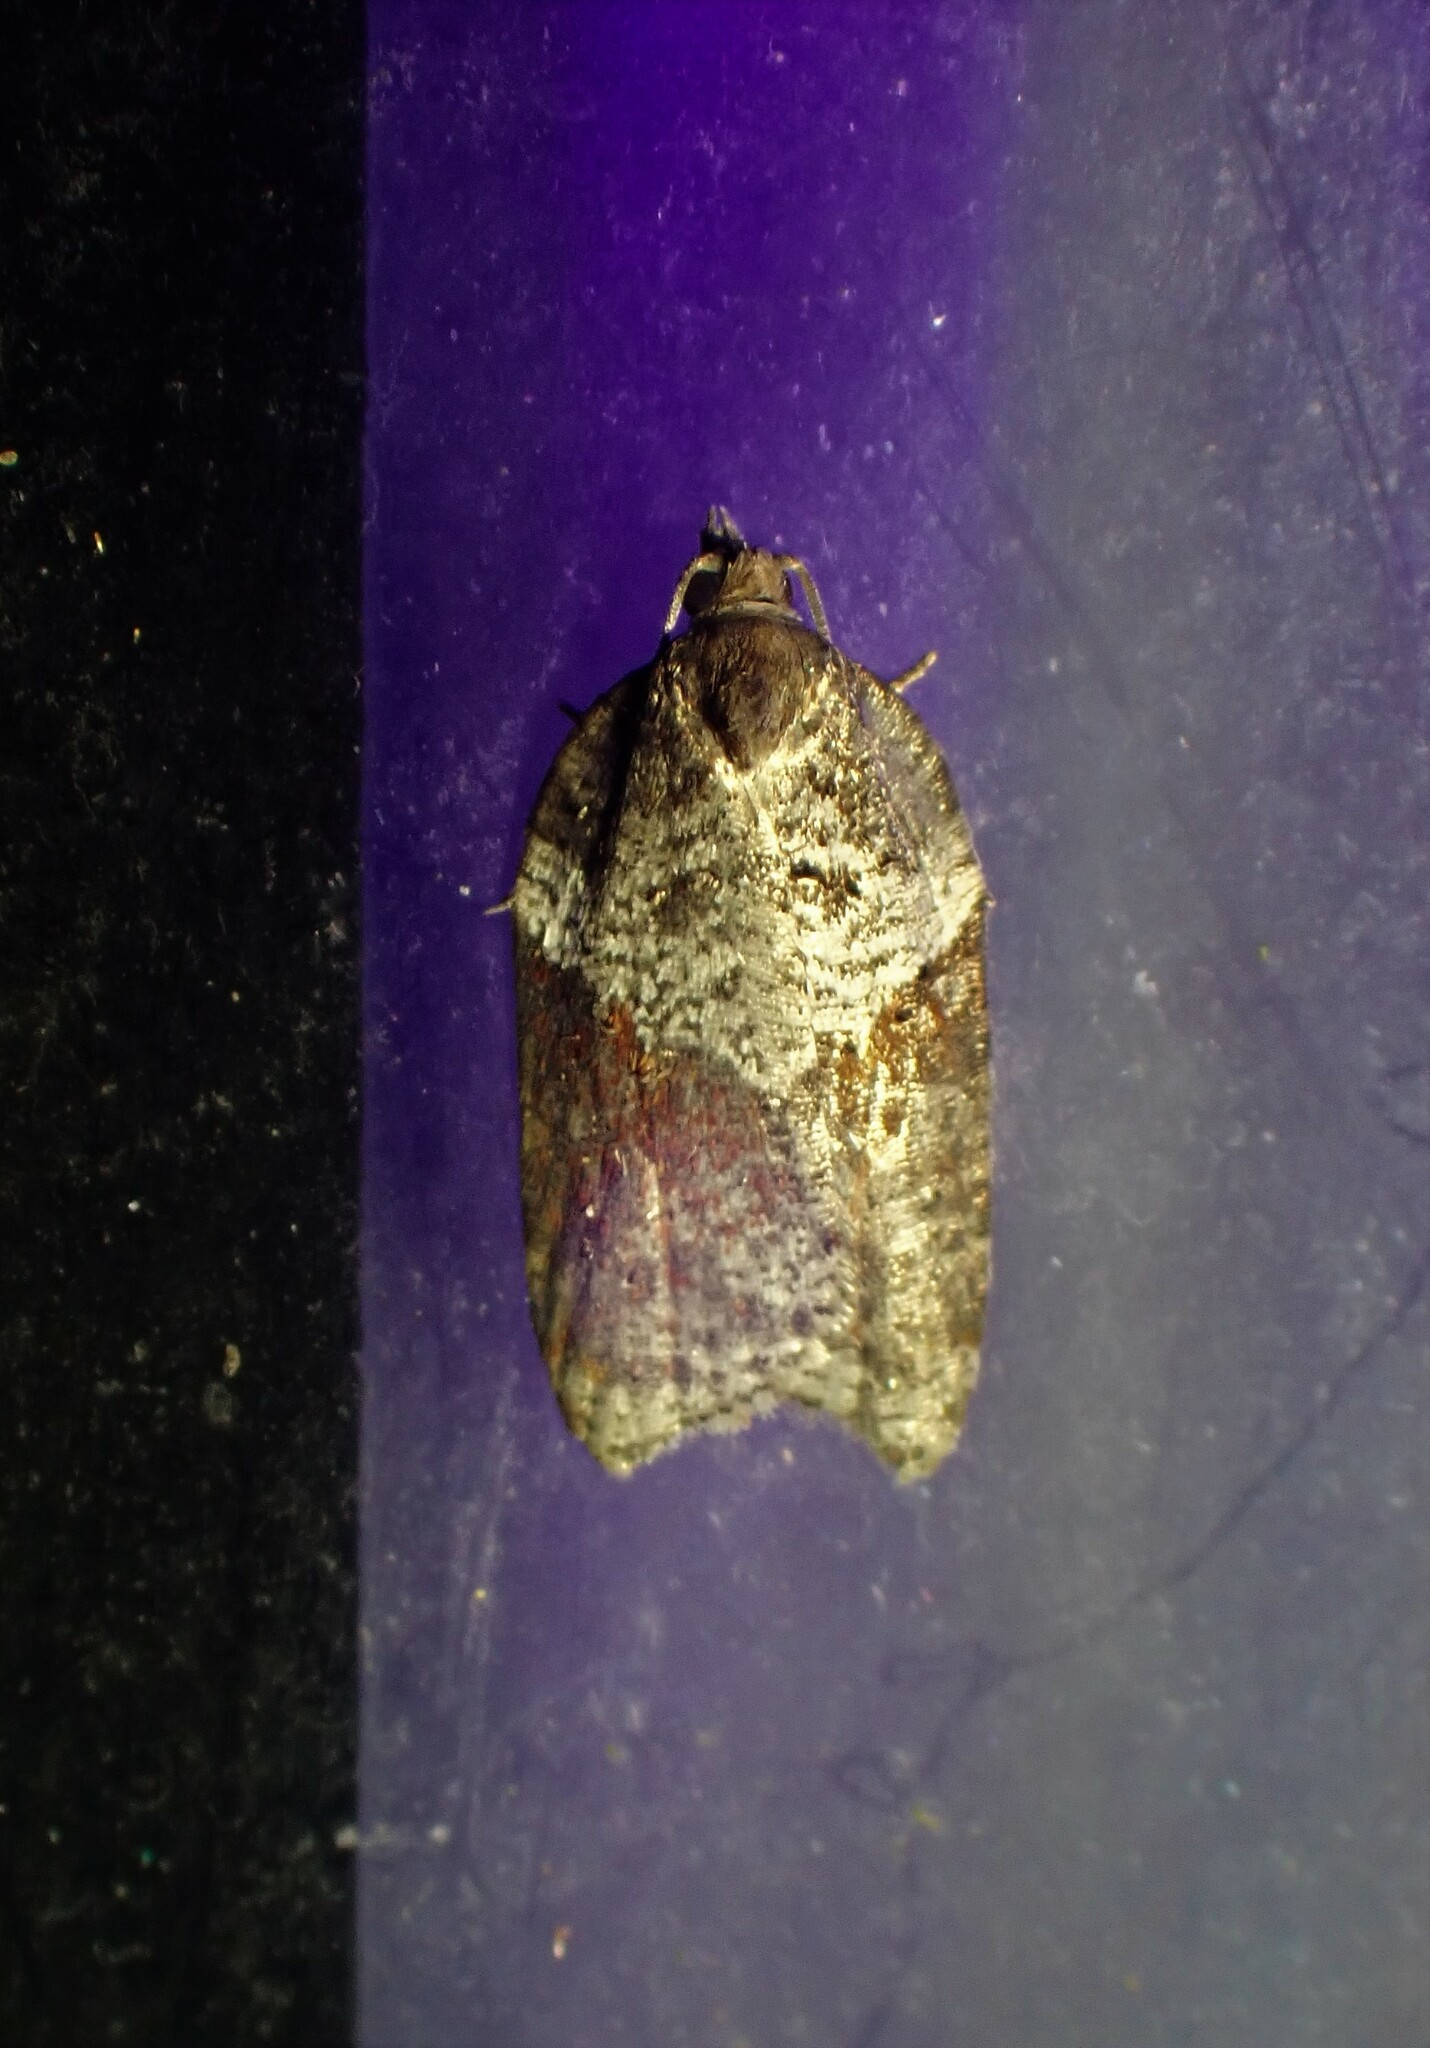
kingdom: Animalia
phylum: Arthropoda
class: Insecta
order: Lepidoptera
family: Tortricidae
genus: Acleris
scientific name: Acleris macdunnoughi
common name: Macdunnough's acleris
